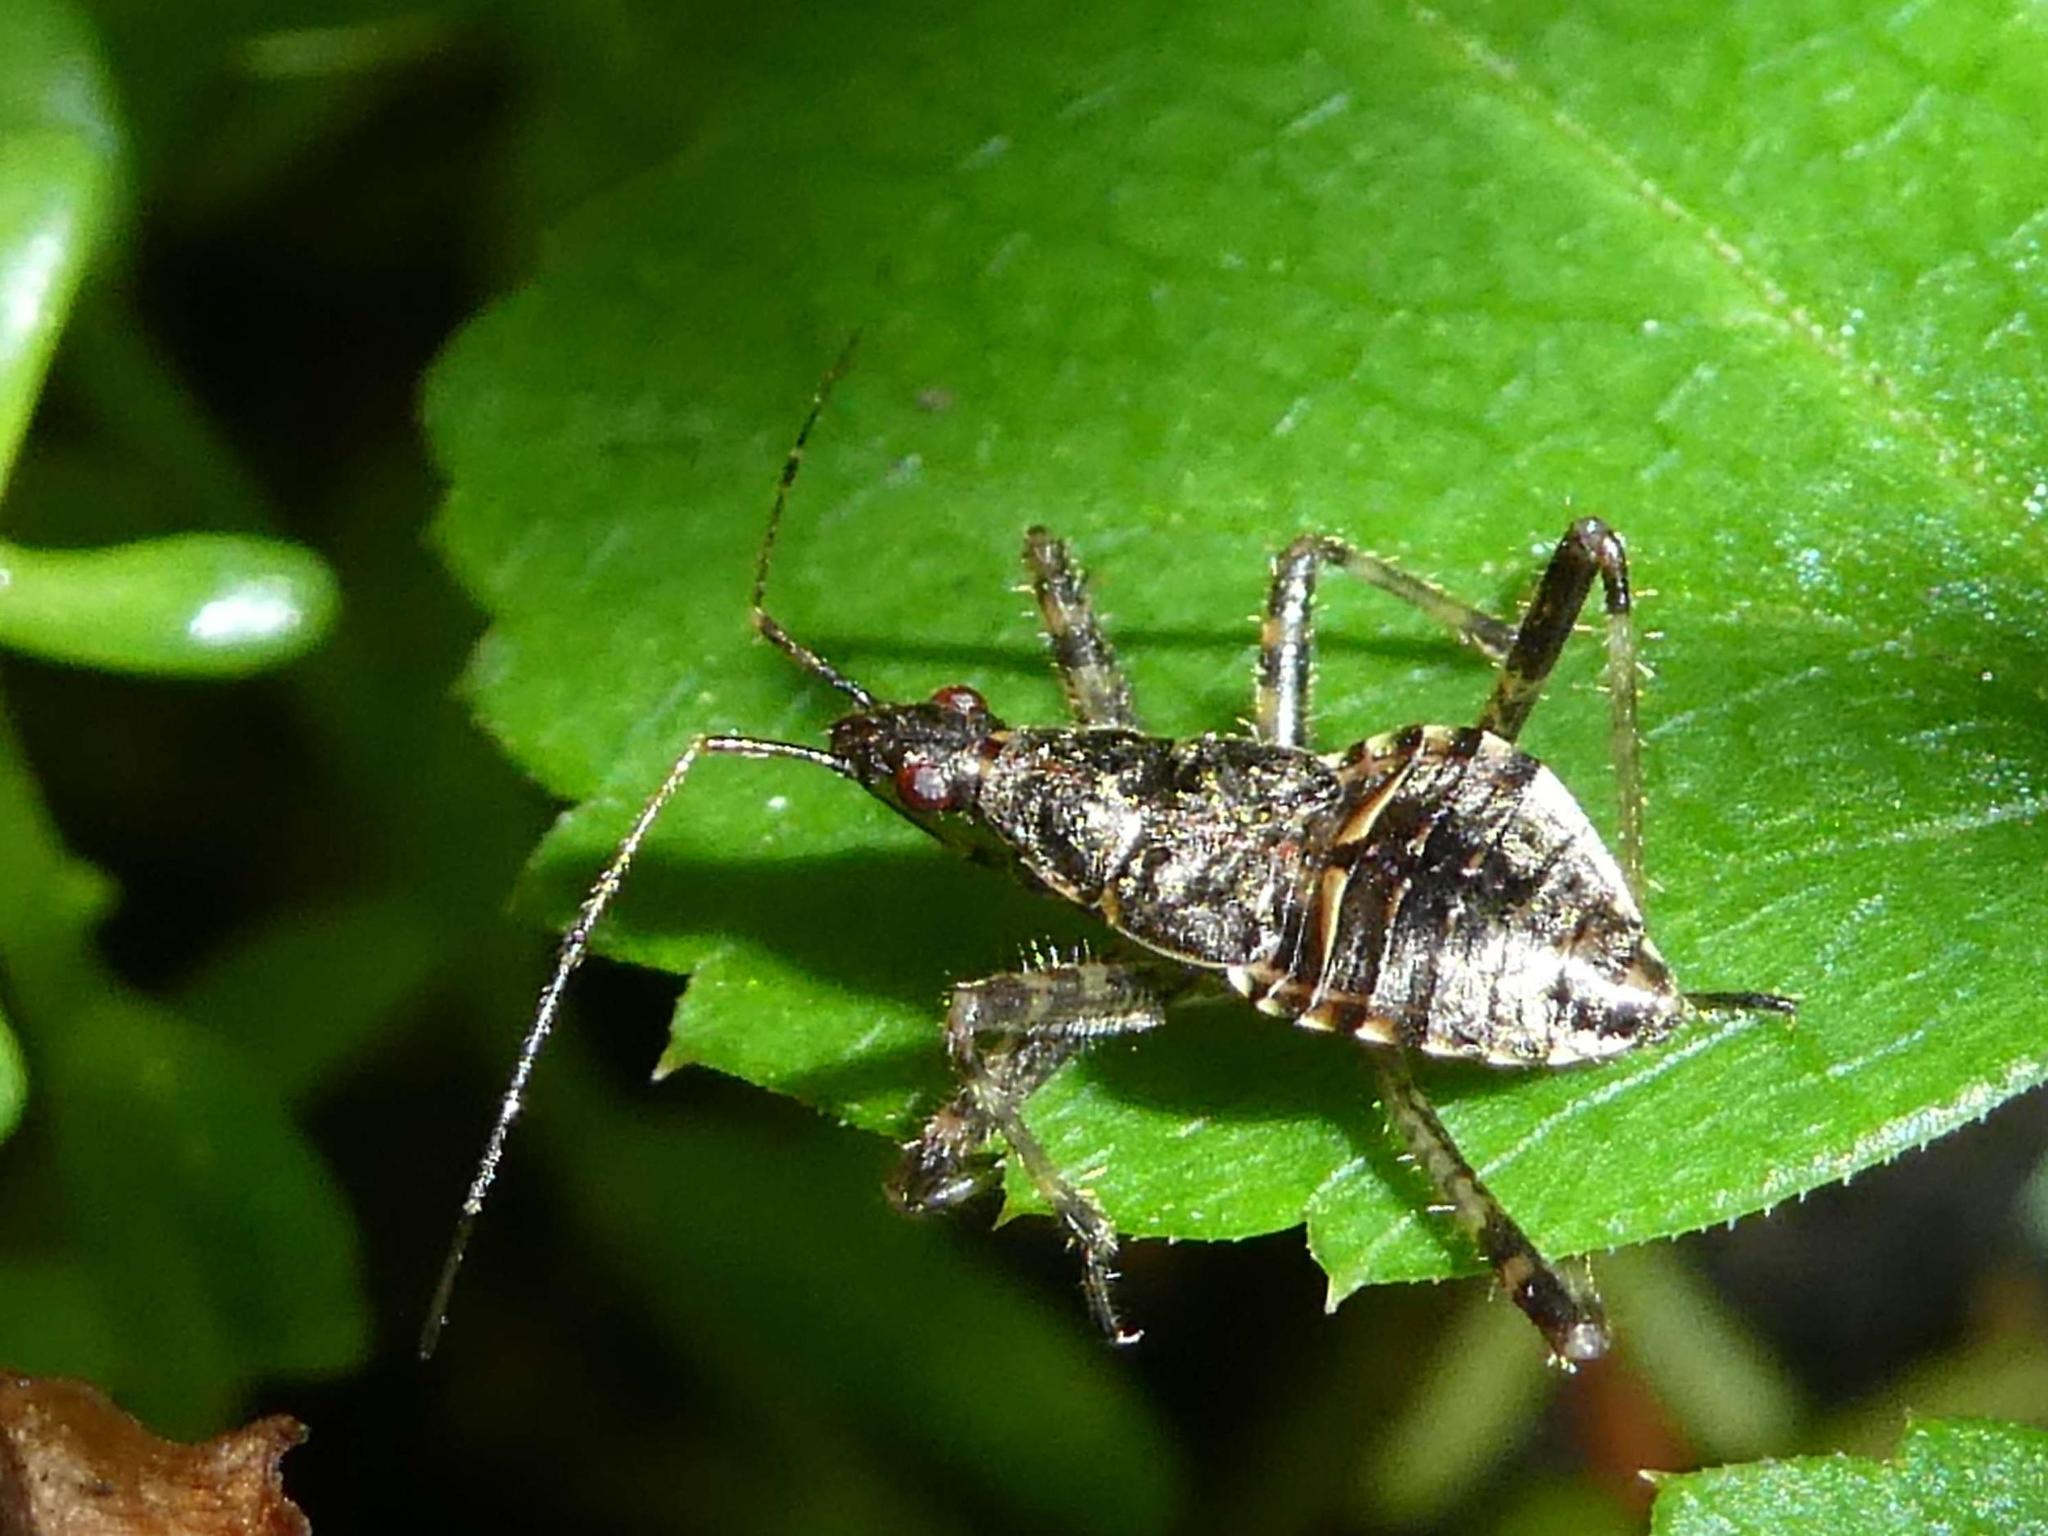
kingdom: Animalia
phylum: Arthropoda
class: Insecta
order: Hemiptera
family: Nabidae
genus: Himacerus
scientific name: Himacerus apterus
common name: Tree damsel bug
